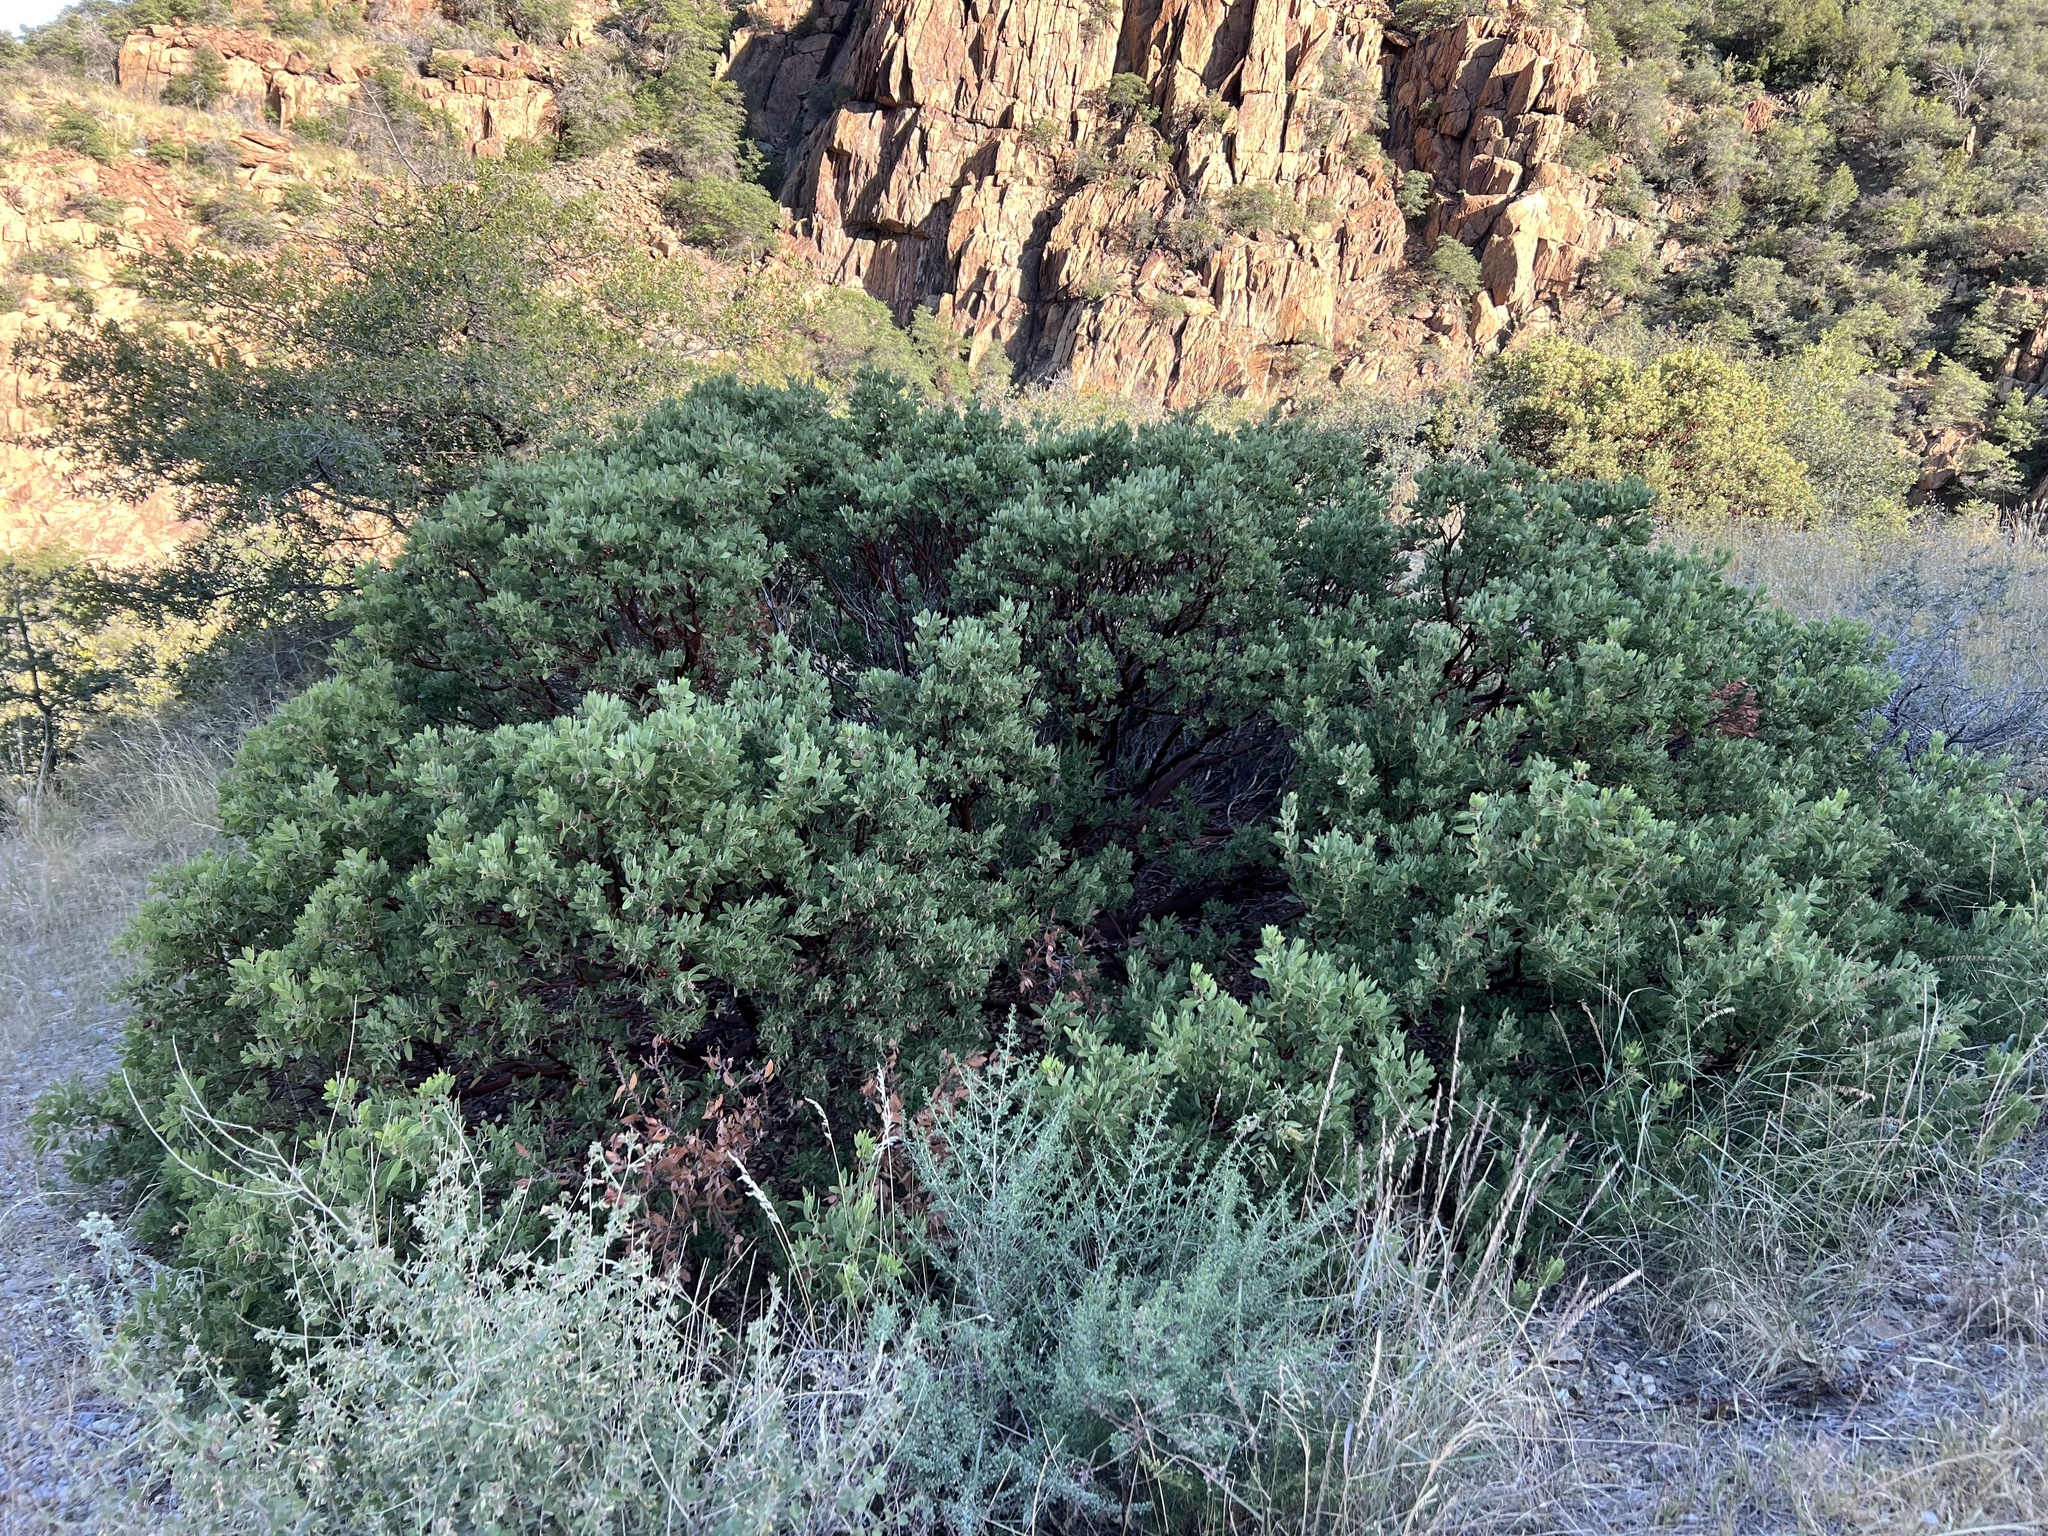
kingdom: Plantae
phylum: Tracheophyta
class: Magnoliopsida
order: Ericales
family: Ericaceae
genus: Arctostaphylos
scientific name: Arctostaphylos pungens
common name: Mexican manzanita
